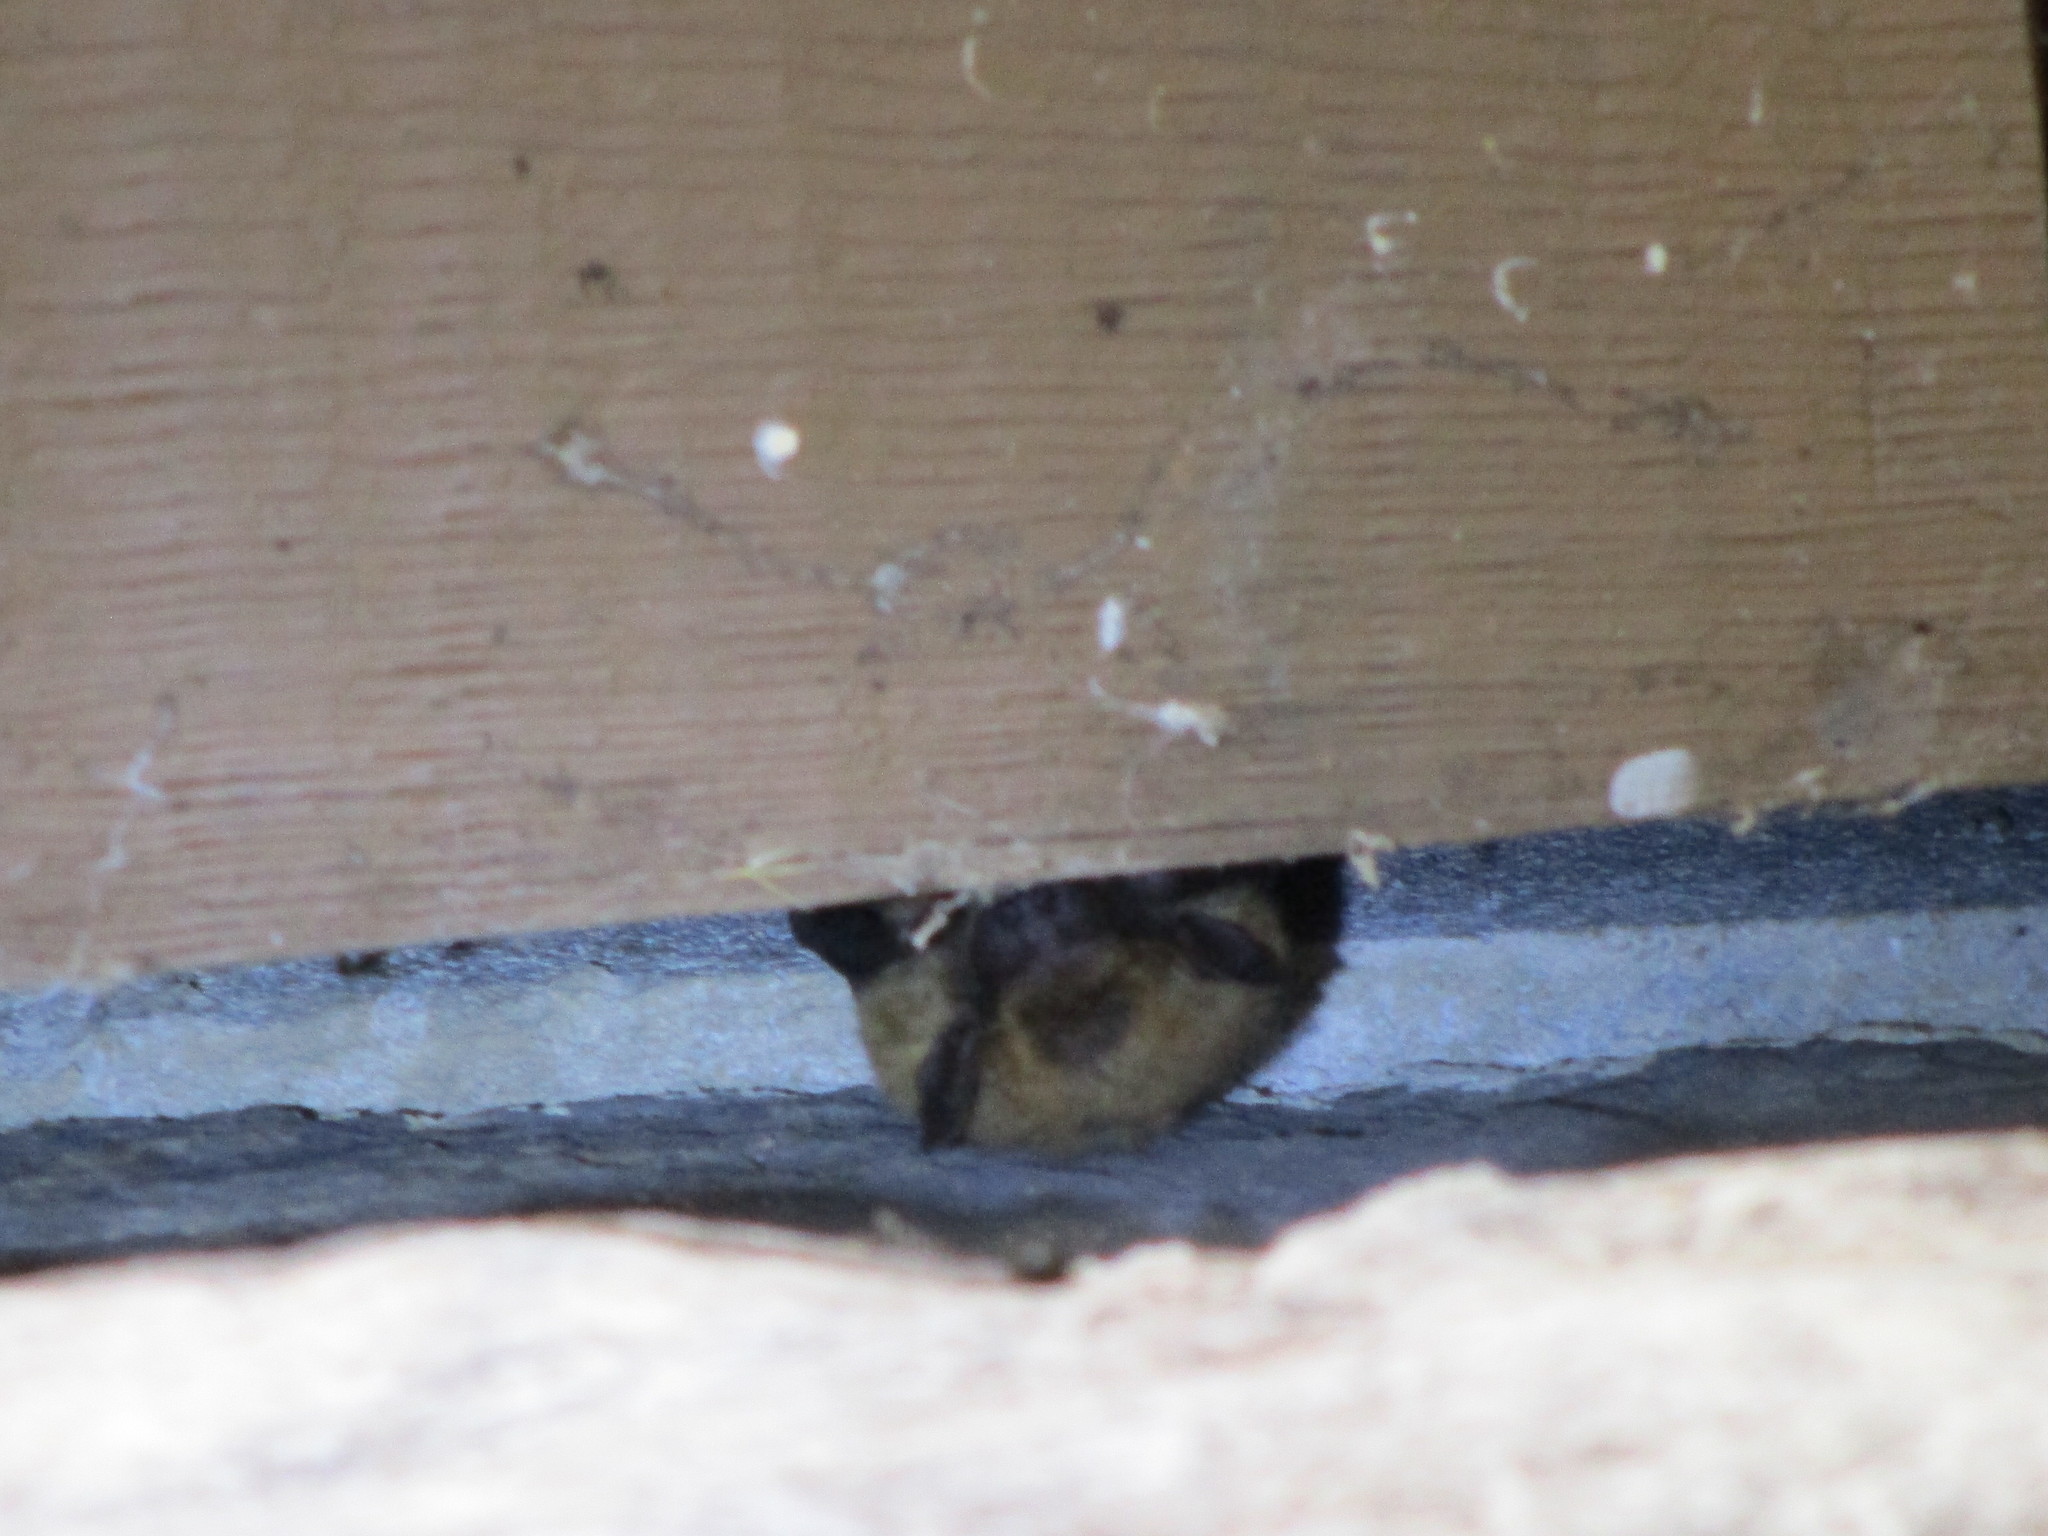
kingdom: Animalia
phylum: Chordata
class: Mammalia
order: Chiroptera
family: Vespertilionidae
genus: Eptesicus
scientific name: Eptesicus fuscus
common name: Big brown bat
